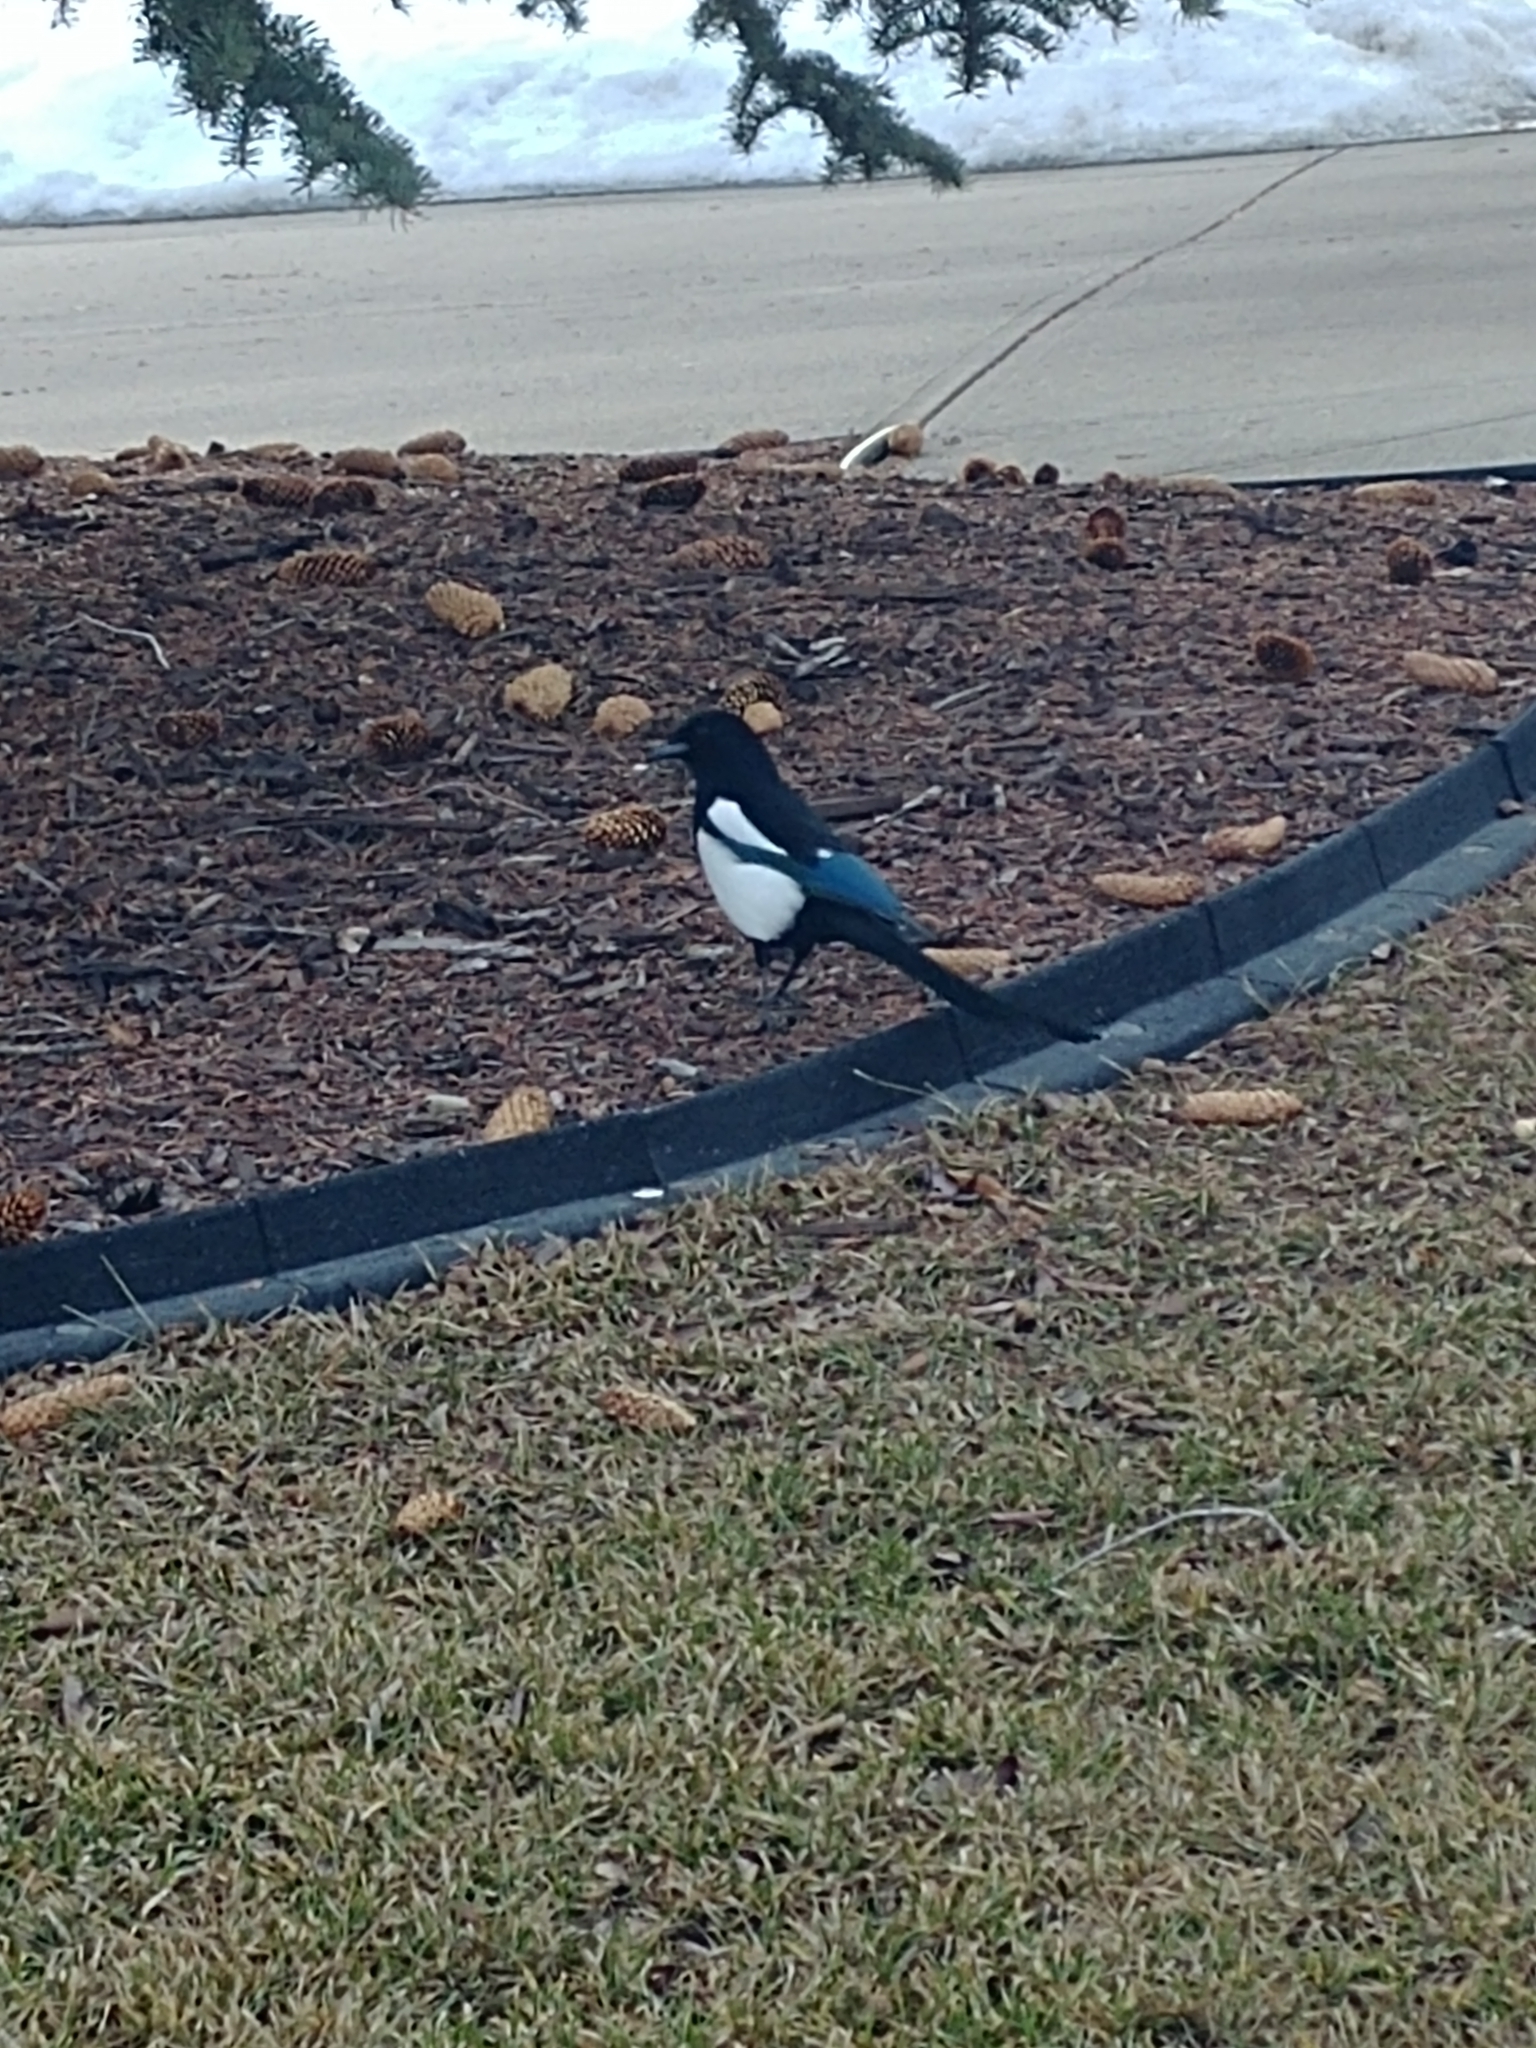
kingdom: Animalia
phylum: Chordata
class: Aves
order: Passeriformes
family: Corvidae
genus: Pica
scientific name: Pica hudsonia
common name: Black-billed magpie
